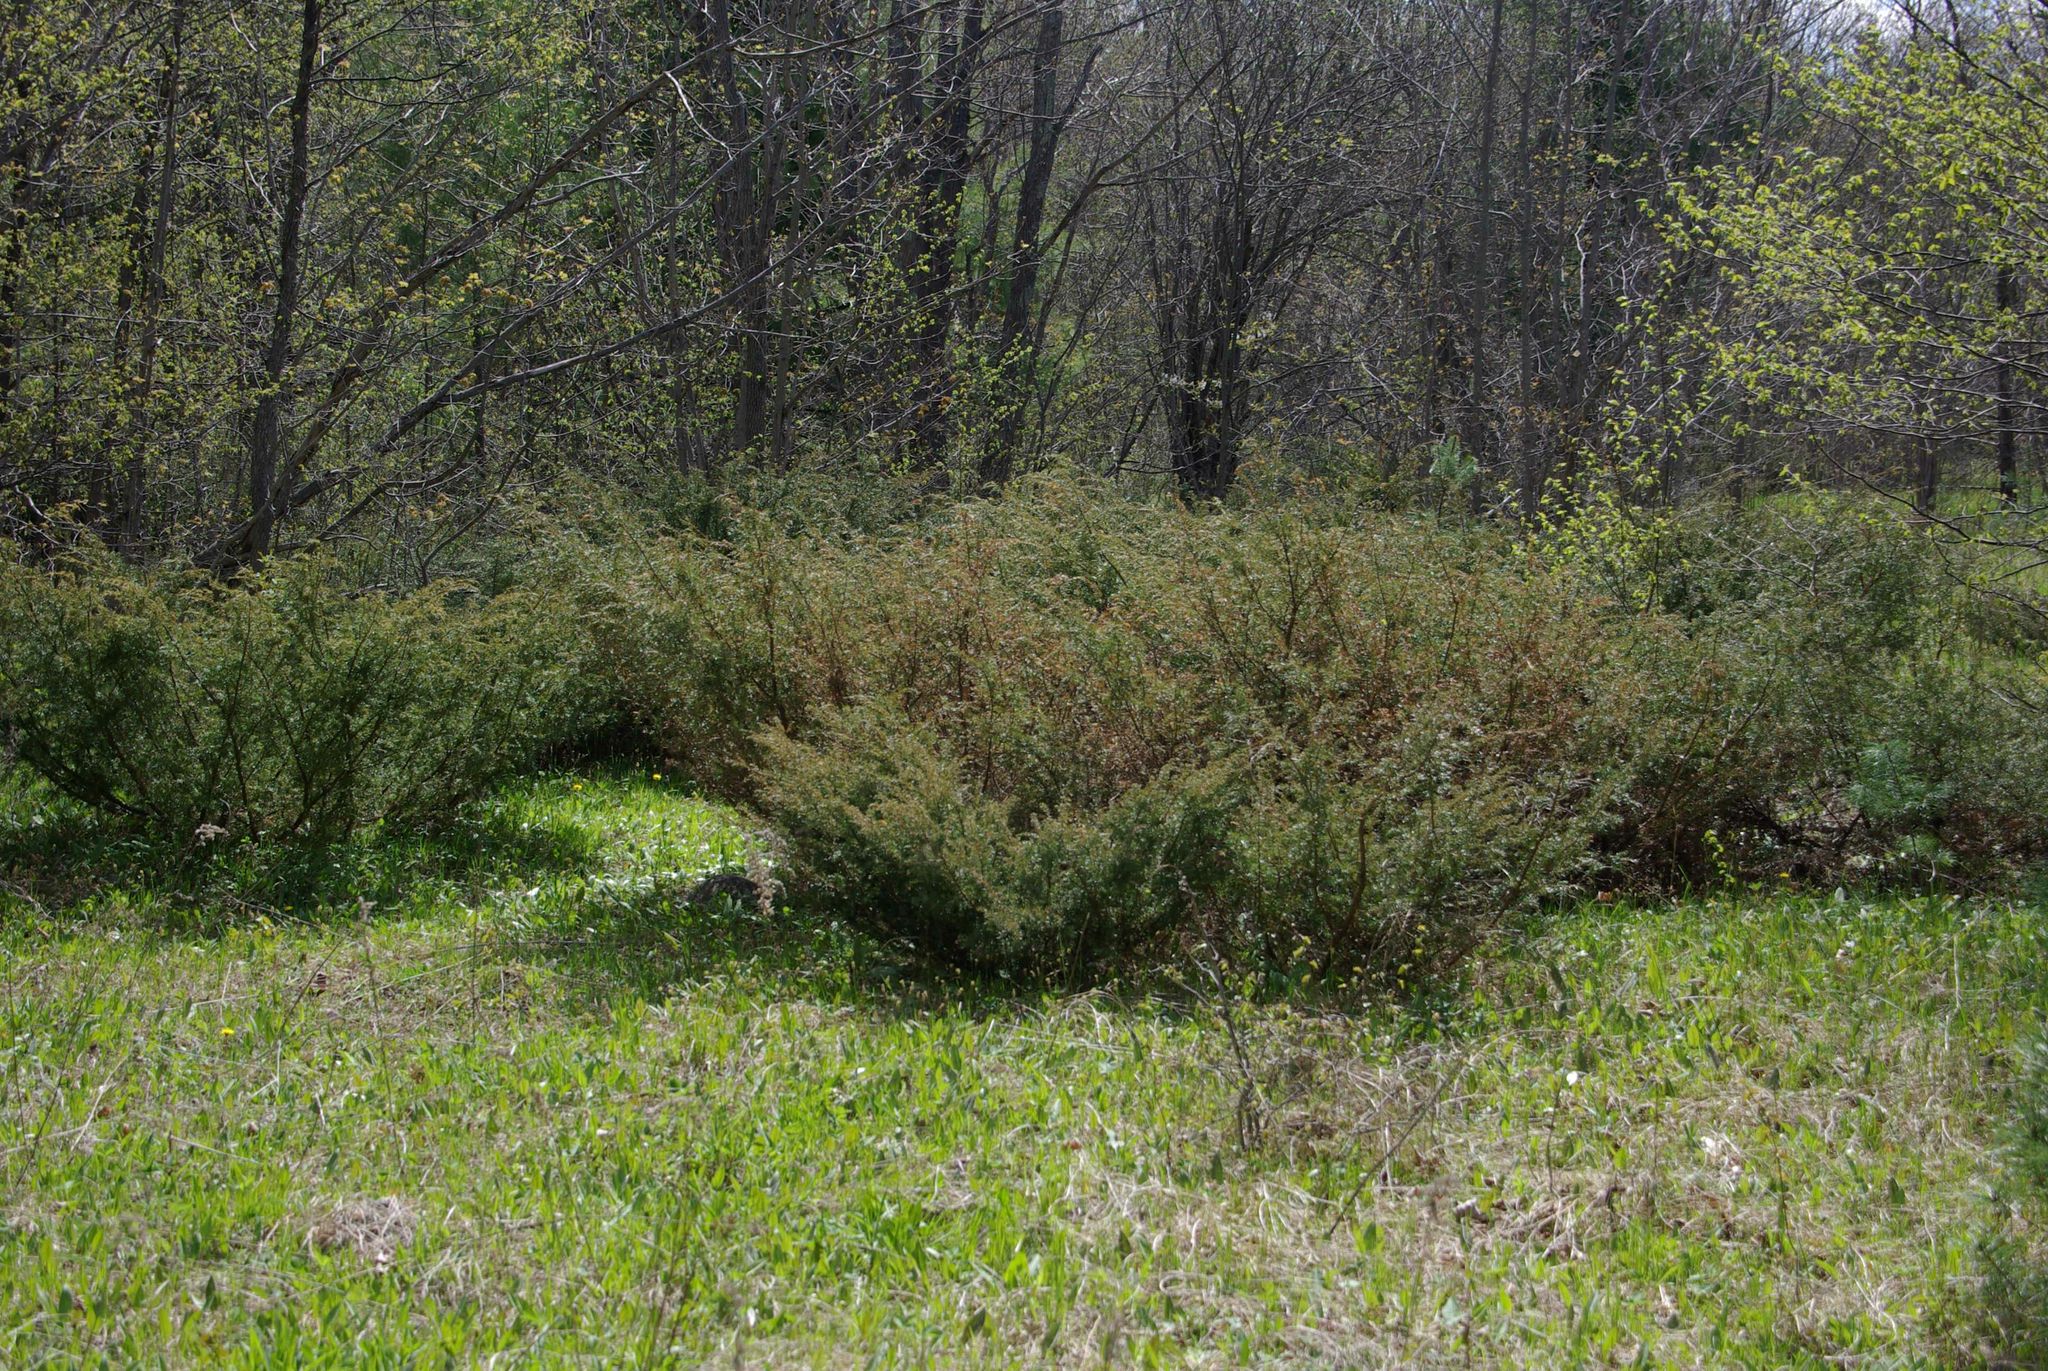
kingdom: Plantae
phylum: Tracheophyta
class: Pinopsida
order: Pinales
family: Cupressaceae
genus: Juniperus
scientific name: Juniperus communis
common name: Common juniper
